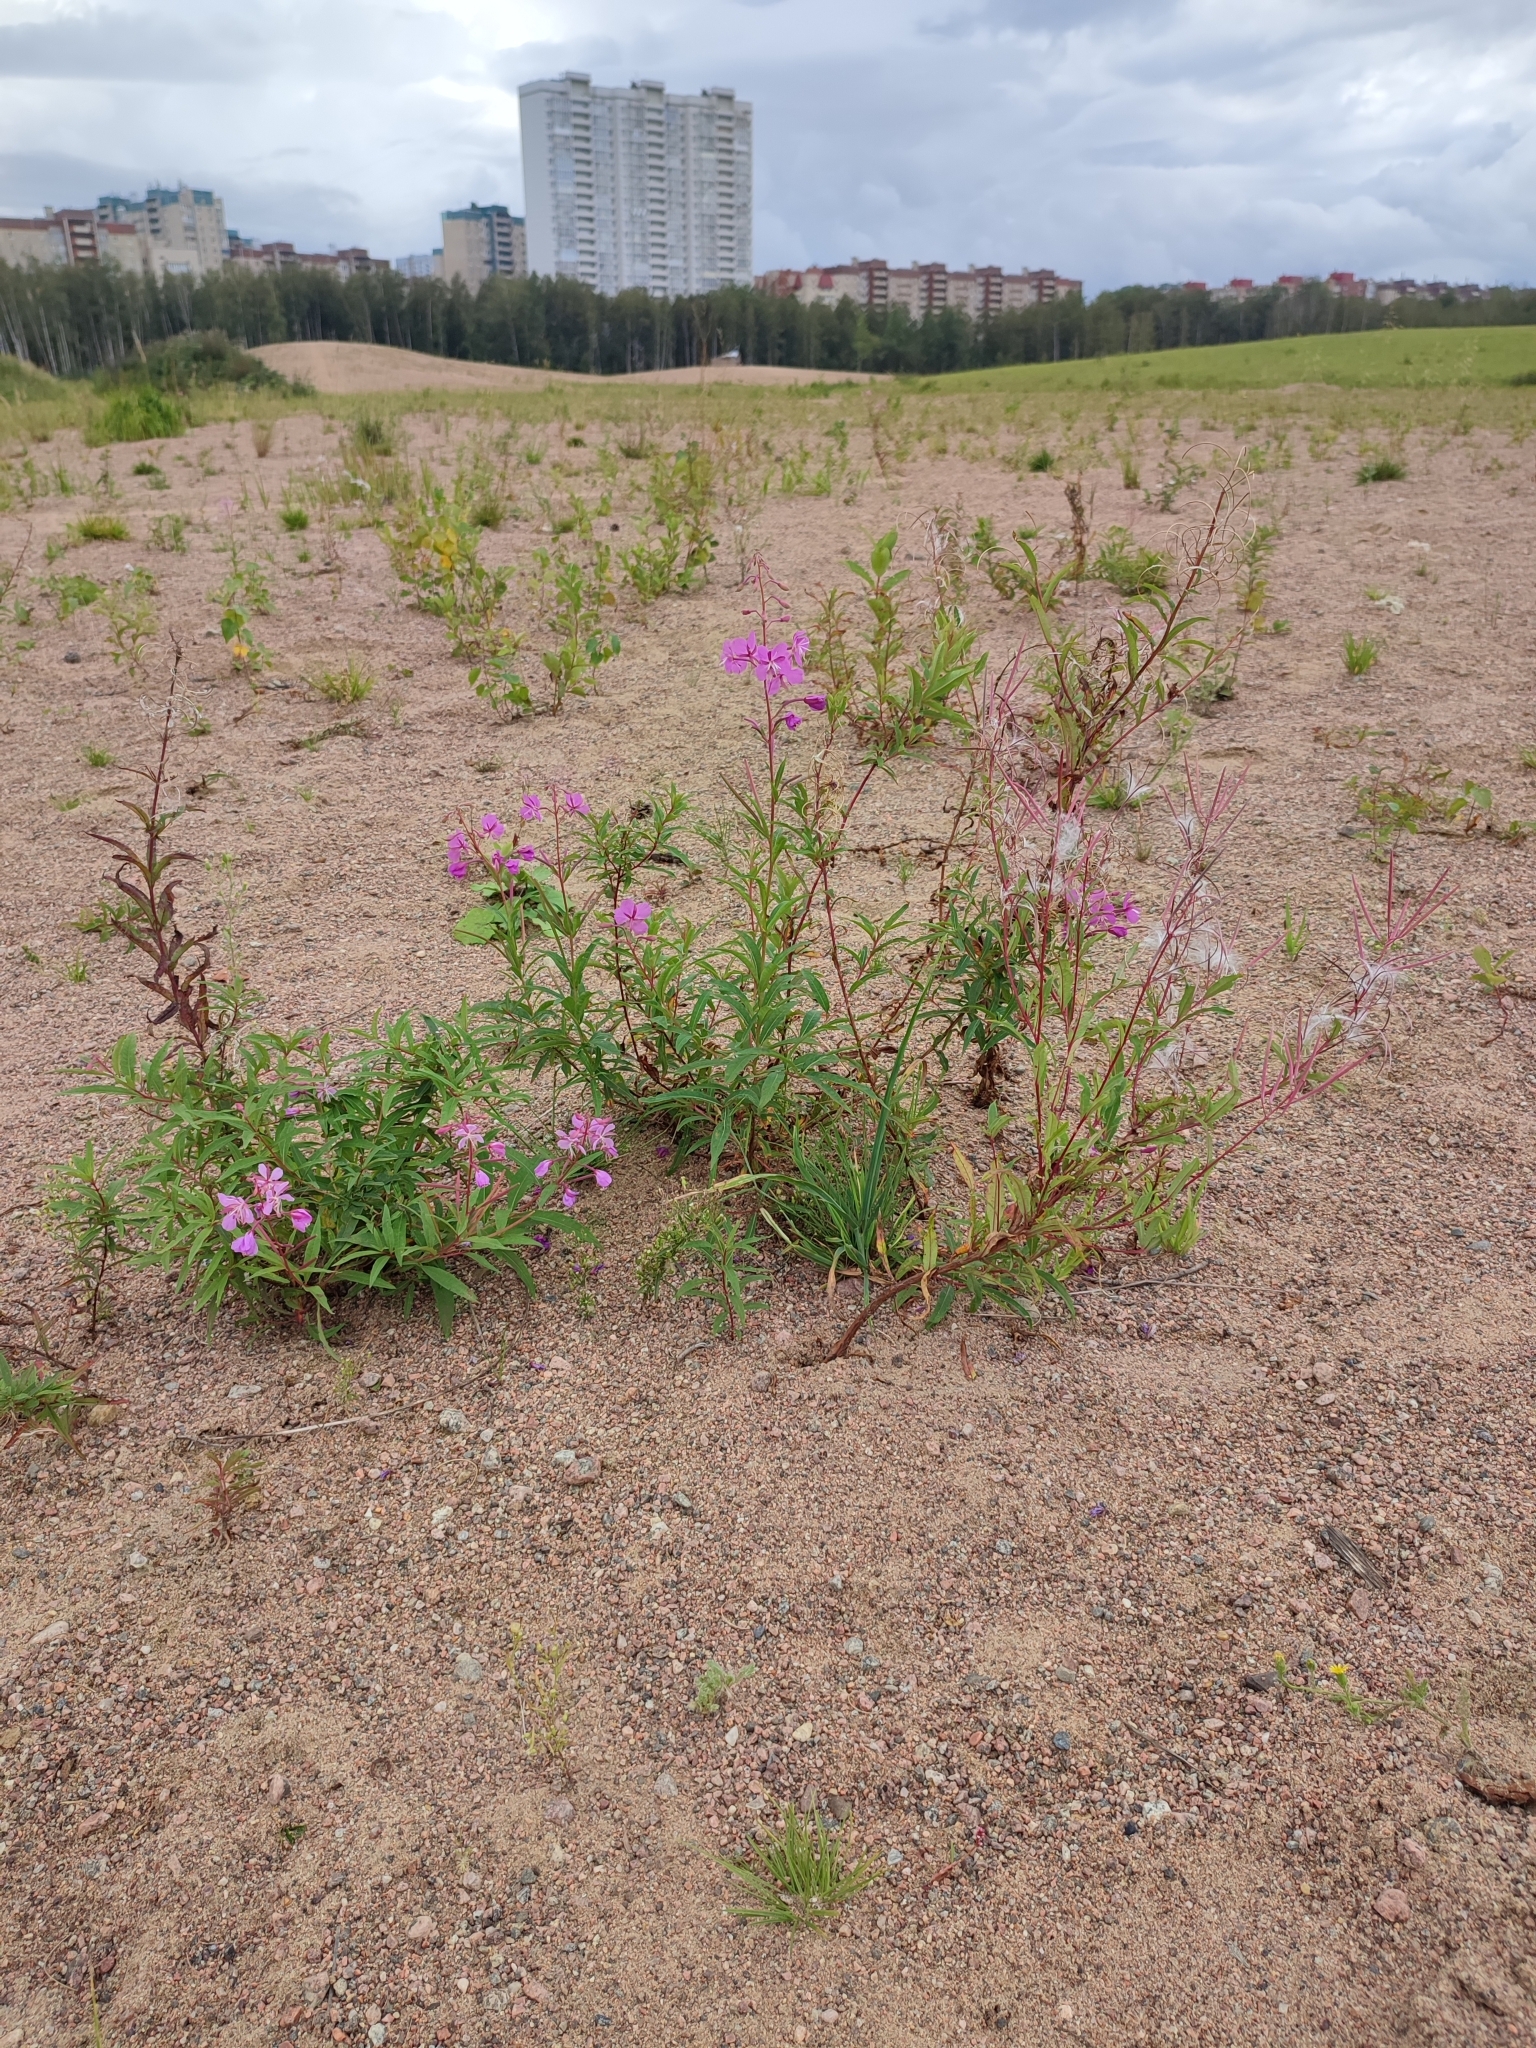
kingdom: Plantae
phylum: Tracheophyta
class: Magnoliopsida
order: Myrtales
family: Onagraceae
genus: Chamaenerion
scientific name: Chamaenerion angustifolium
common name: Fireweed
